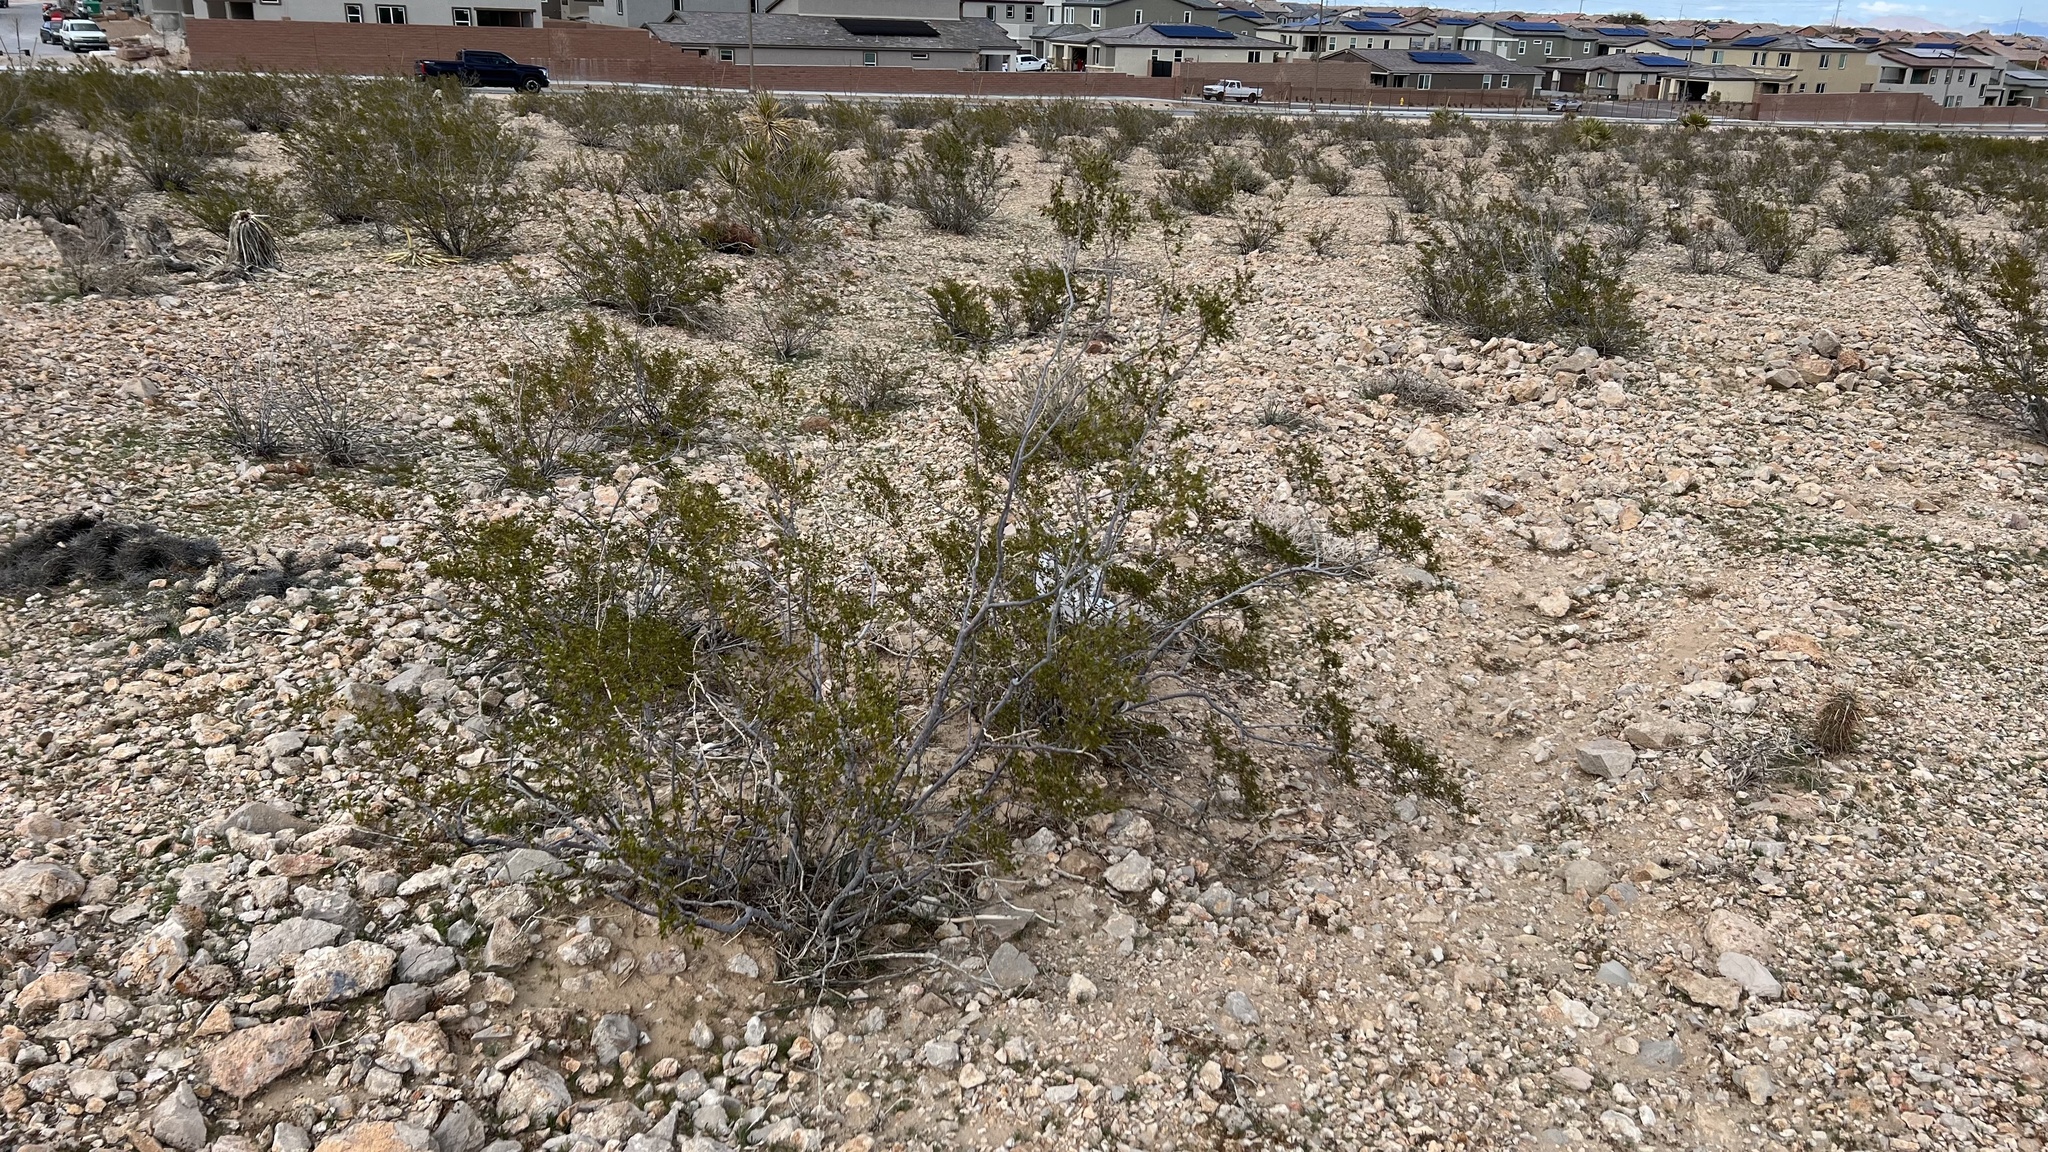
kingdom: Plantae
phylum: Tracheophyta
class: Magnoliopsida
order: Zygophyllales
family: Zygophyllaceae
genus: Larrea
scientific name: Larrea tridentata
